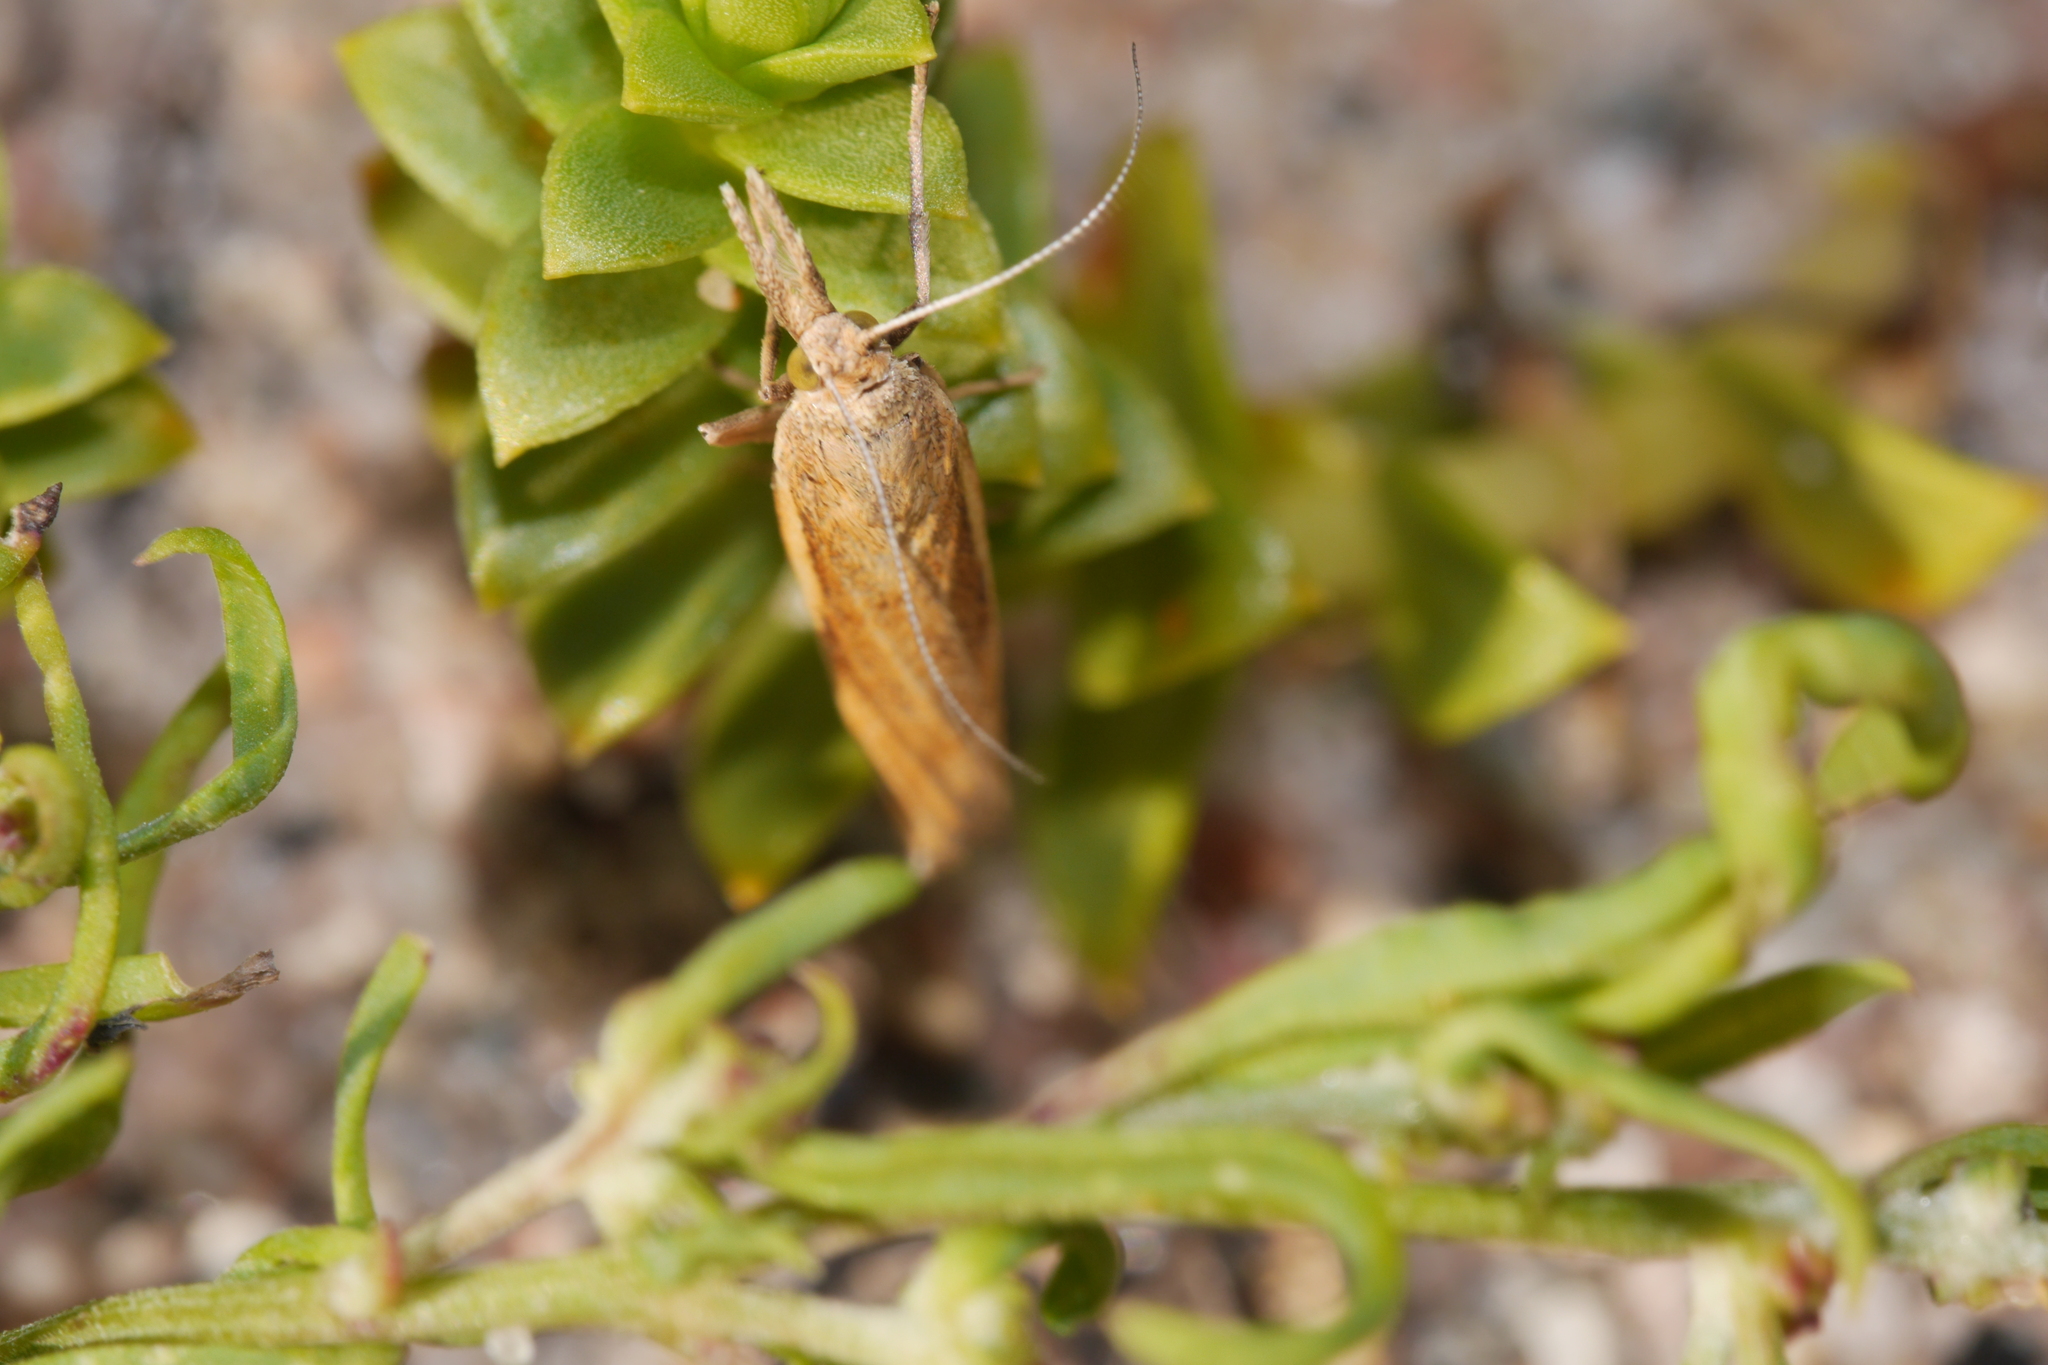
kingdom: Animalia
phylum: Arthropoda
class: Insecta
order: Lepidoptera
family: Crambidae
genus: Agriphila
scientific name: Agriphila tristellus
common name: Common grass-veneer
